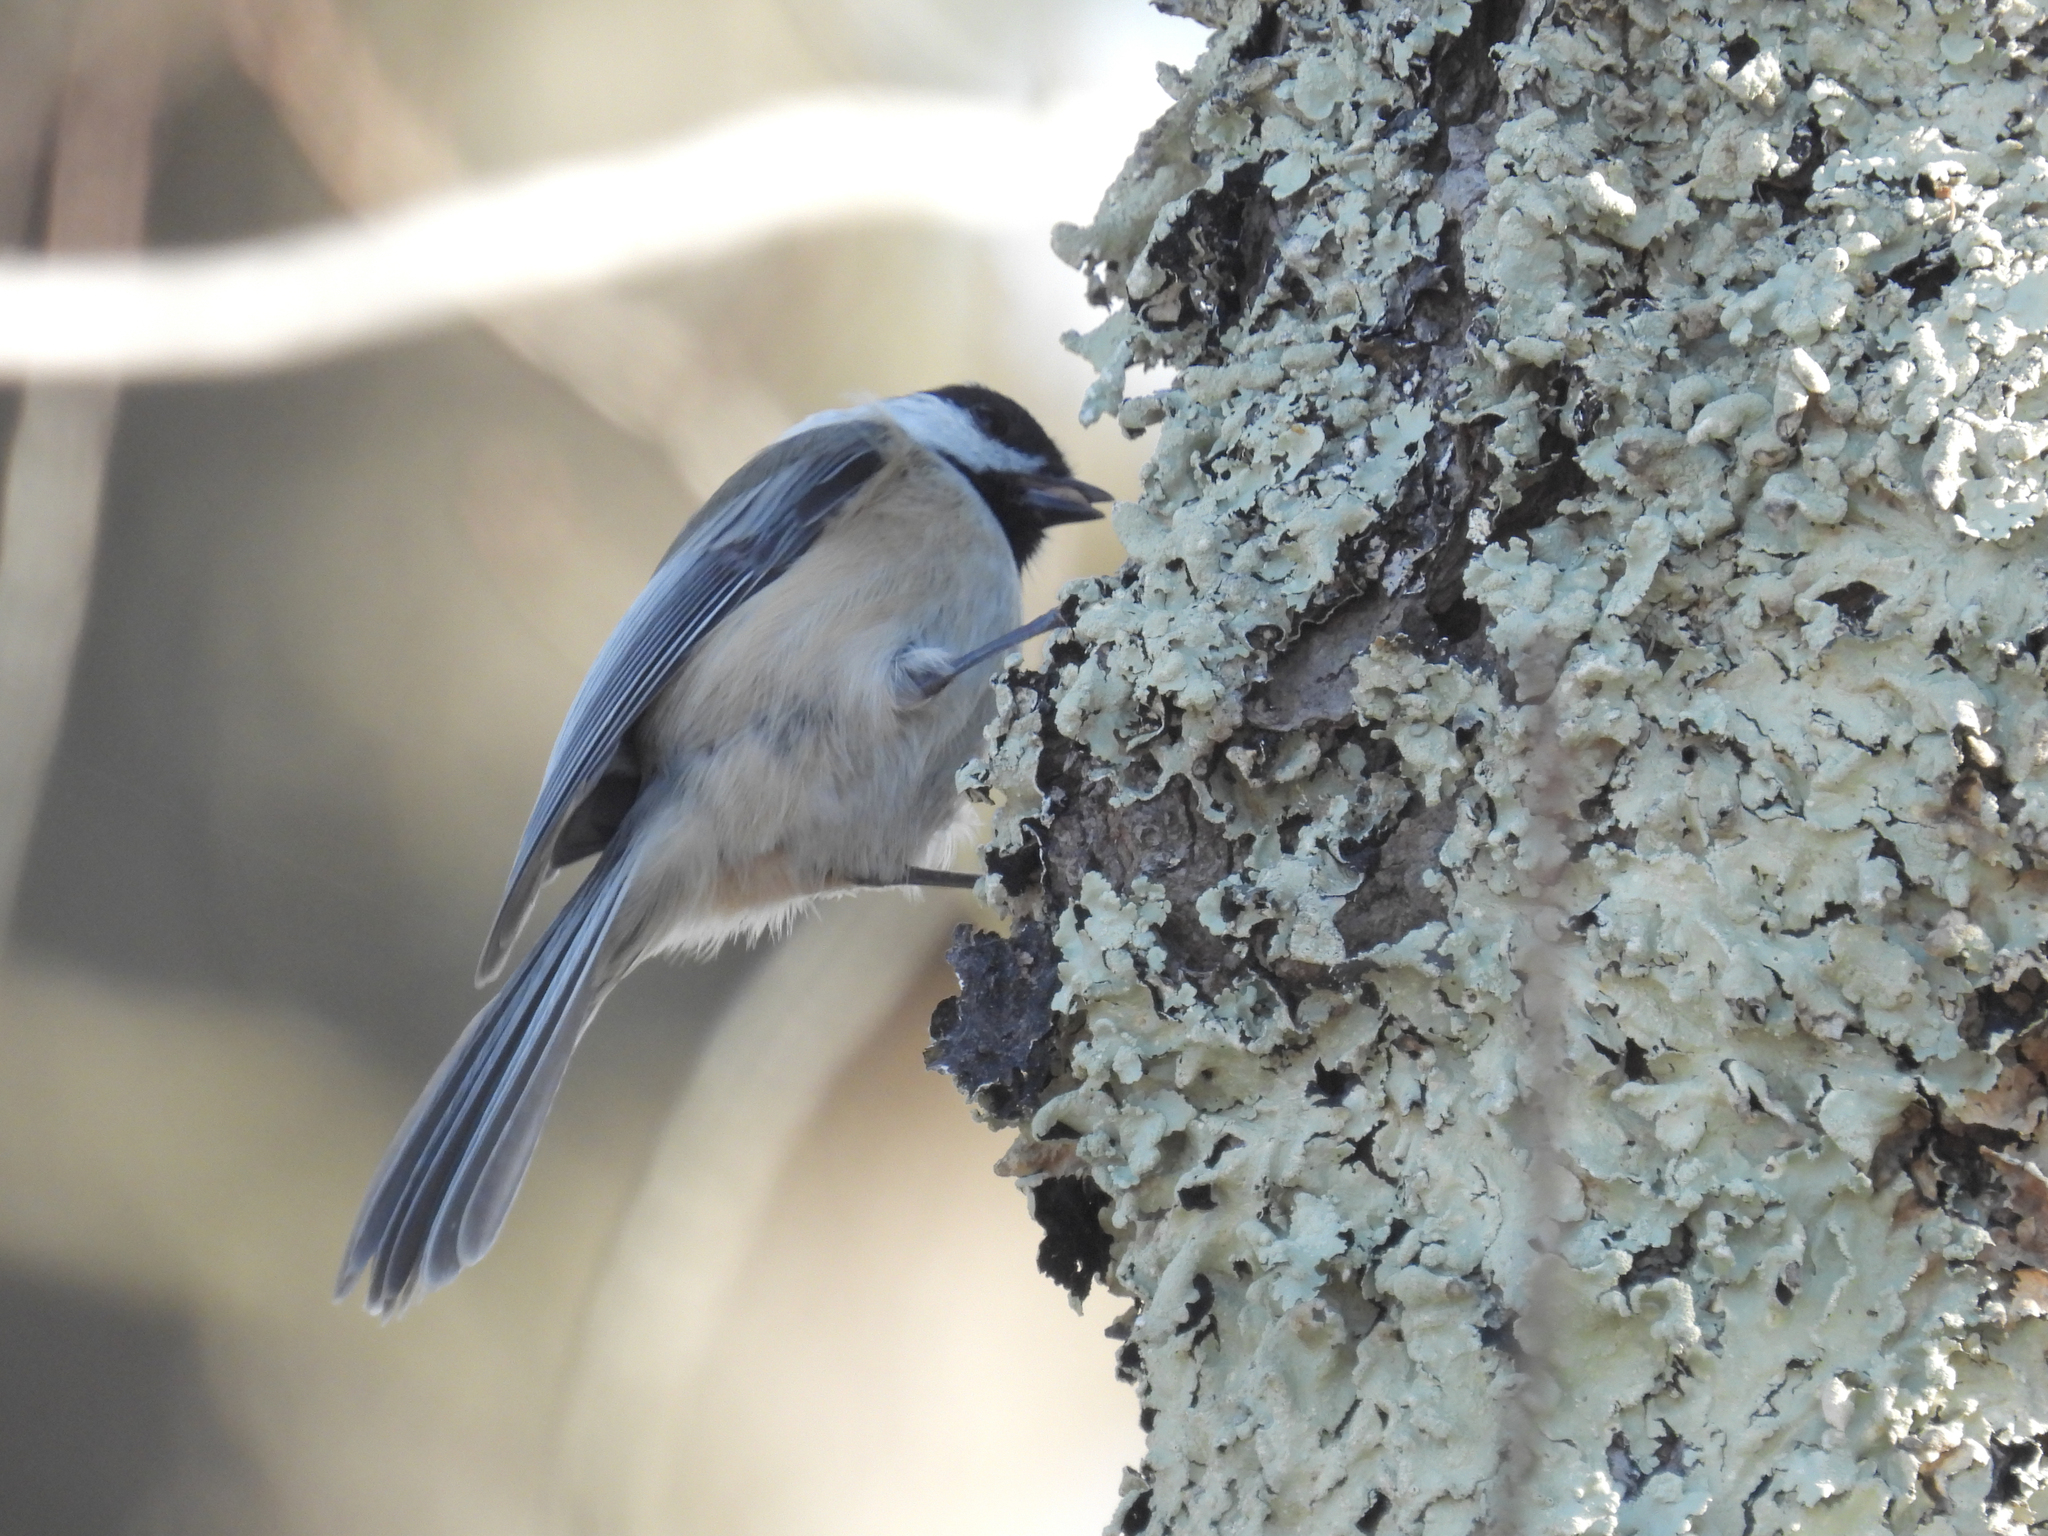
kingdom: Animalia
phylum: Chordata
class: Aves
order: Passeriformes
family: Paridae
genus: Poecile
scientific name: Poecile atricapillus
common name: Black-capped chickadee
